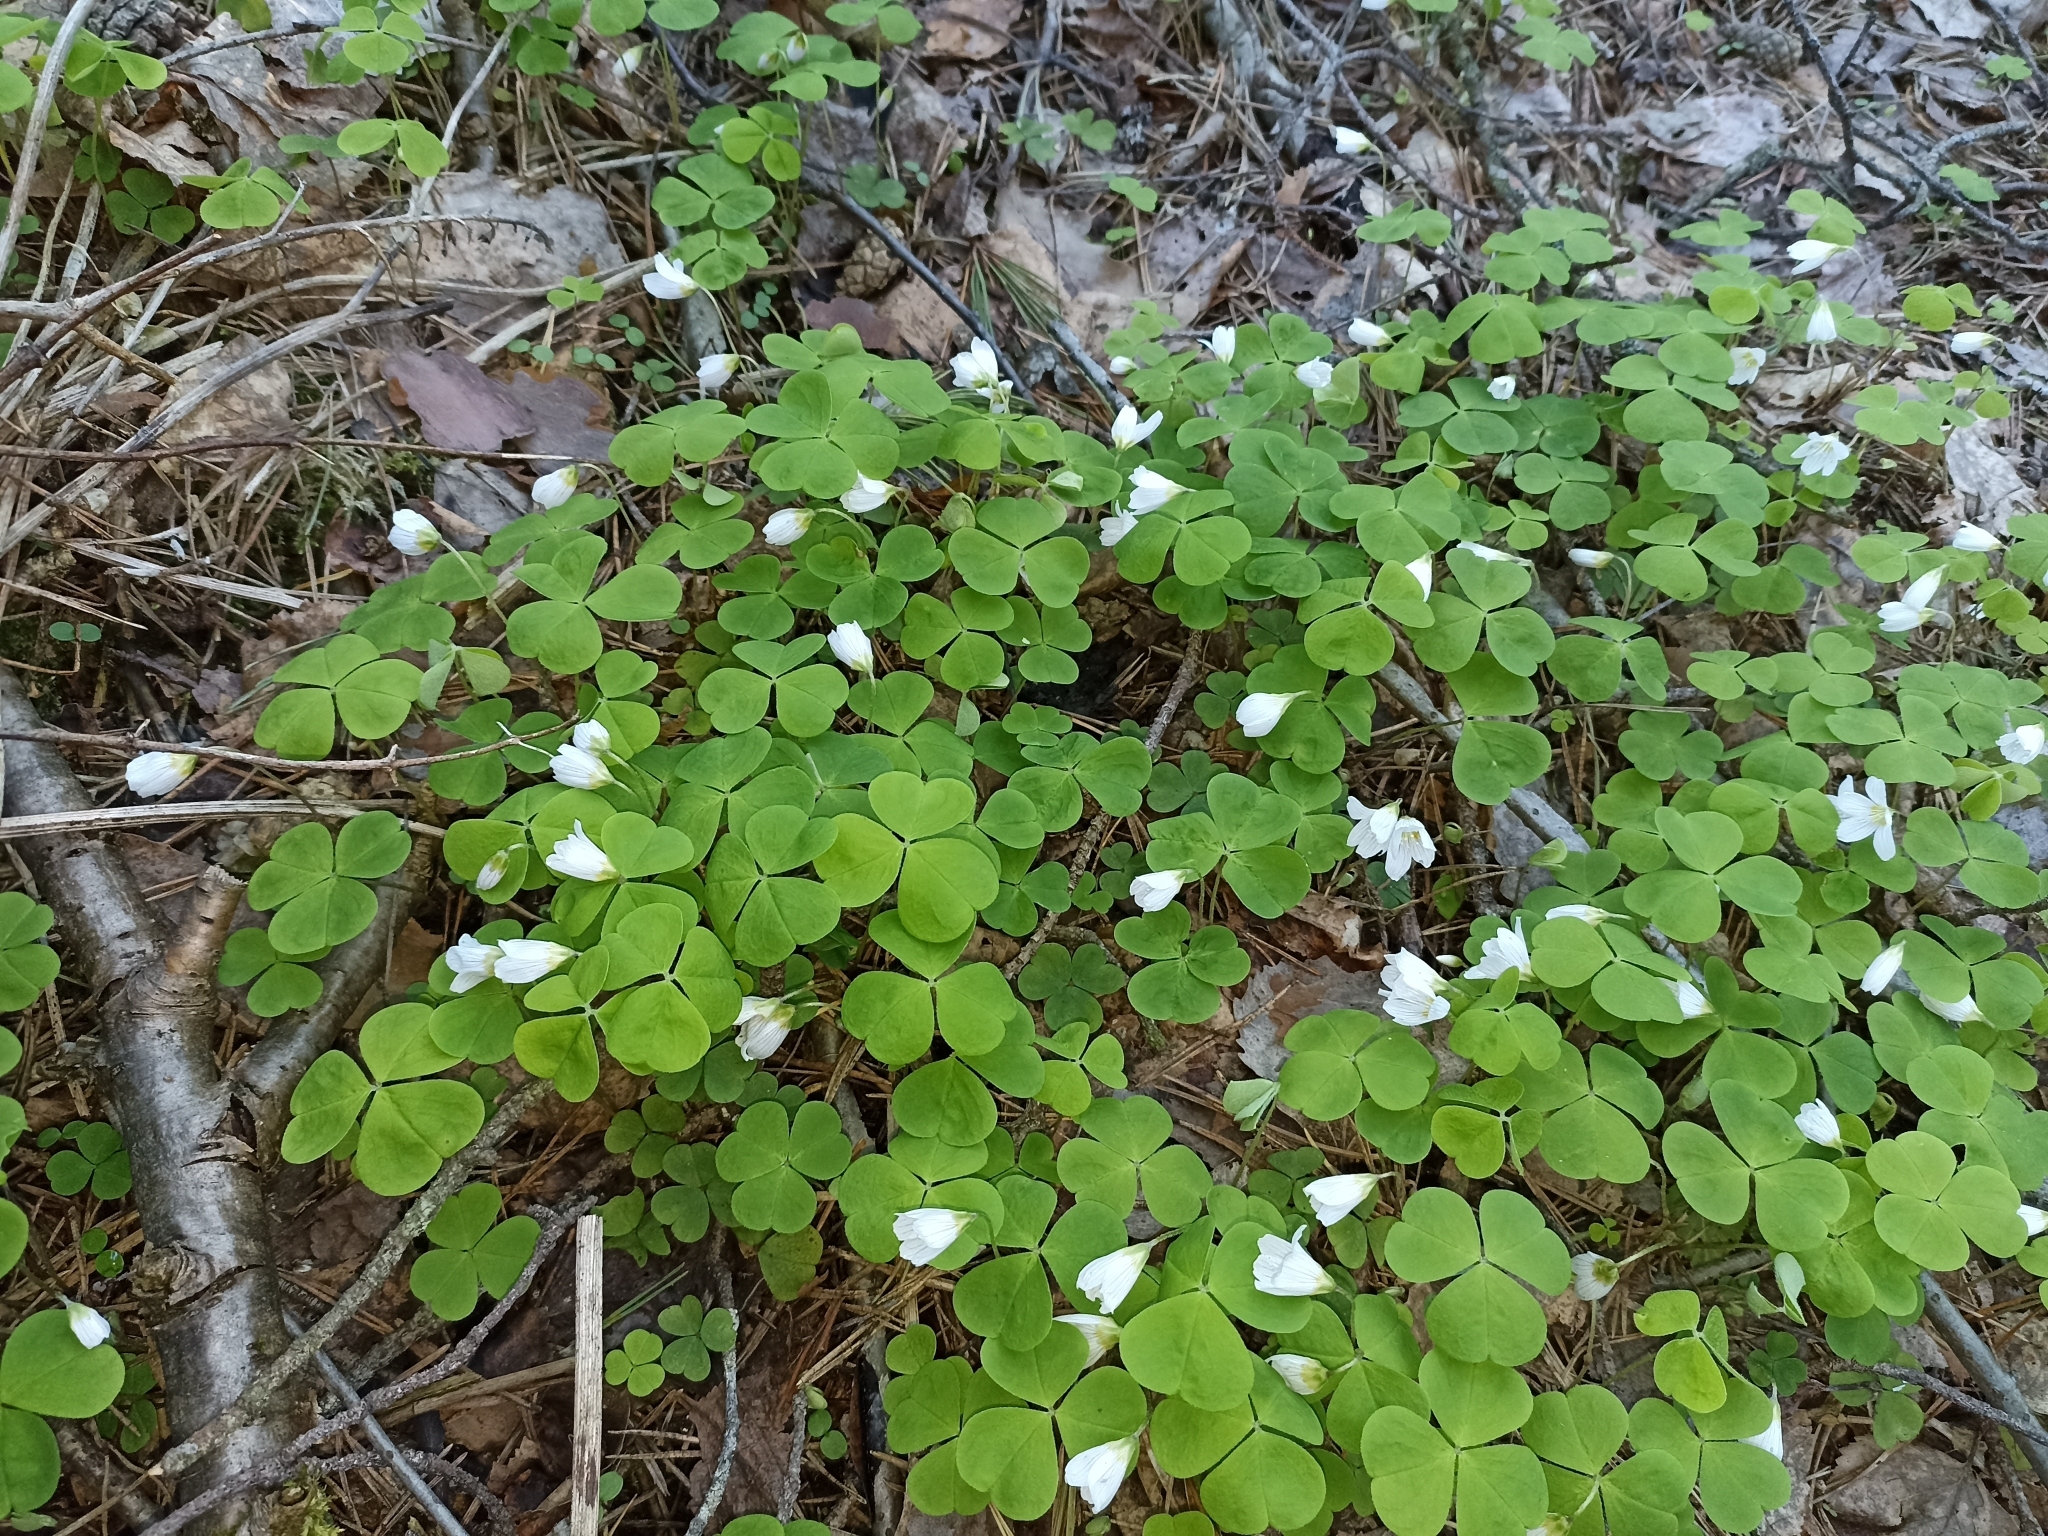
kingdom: Plantae
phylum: Tracheophyta
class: Magnoliopsida
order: Oxalidales
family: Oxalidaceae
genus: Oxalis
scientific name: Oxalis acetosella
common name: Wood-sorrel
